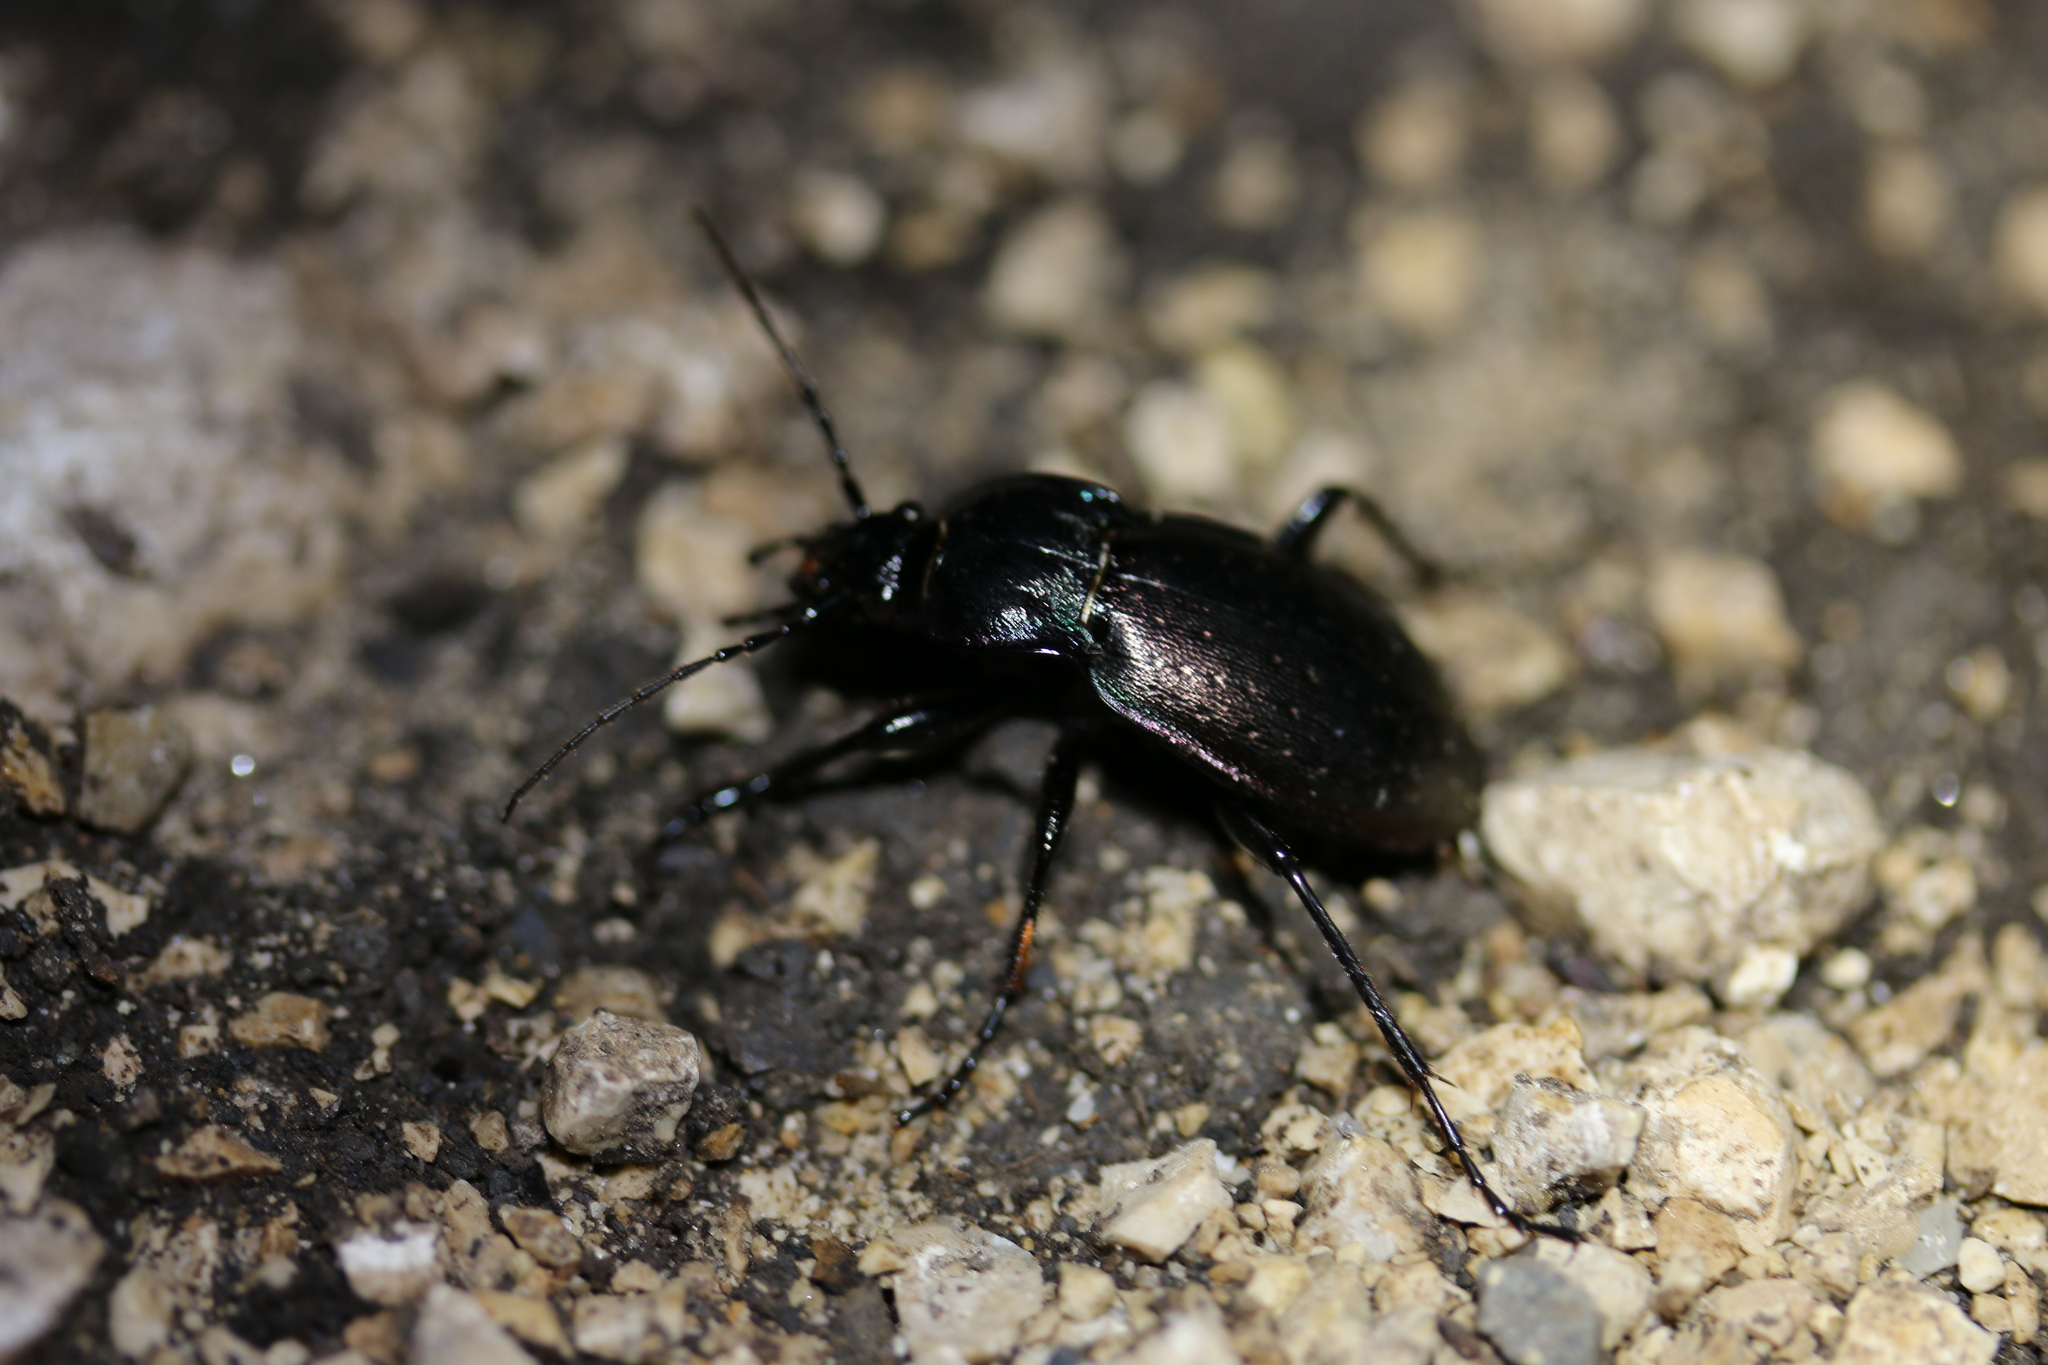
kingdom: Animalia
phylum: Arthropoda
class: Insecta
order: Coleoptera
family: Carabidae
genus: Carabus
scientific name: Carabus nemoralis
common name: European ground beetle
